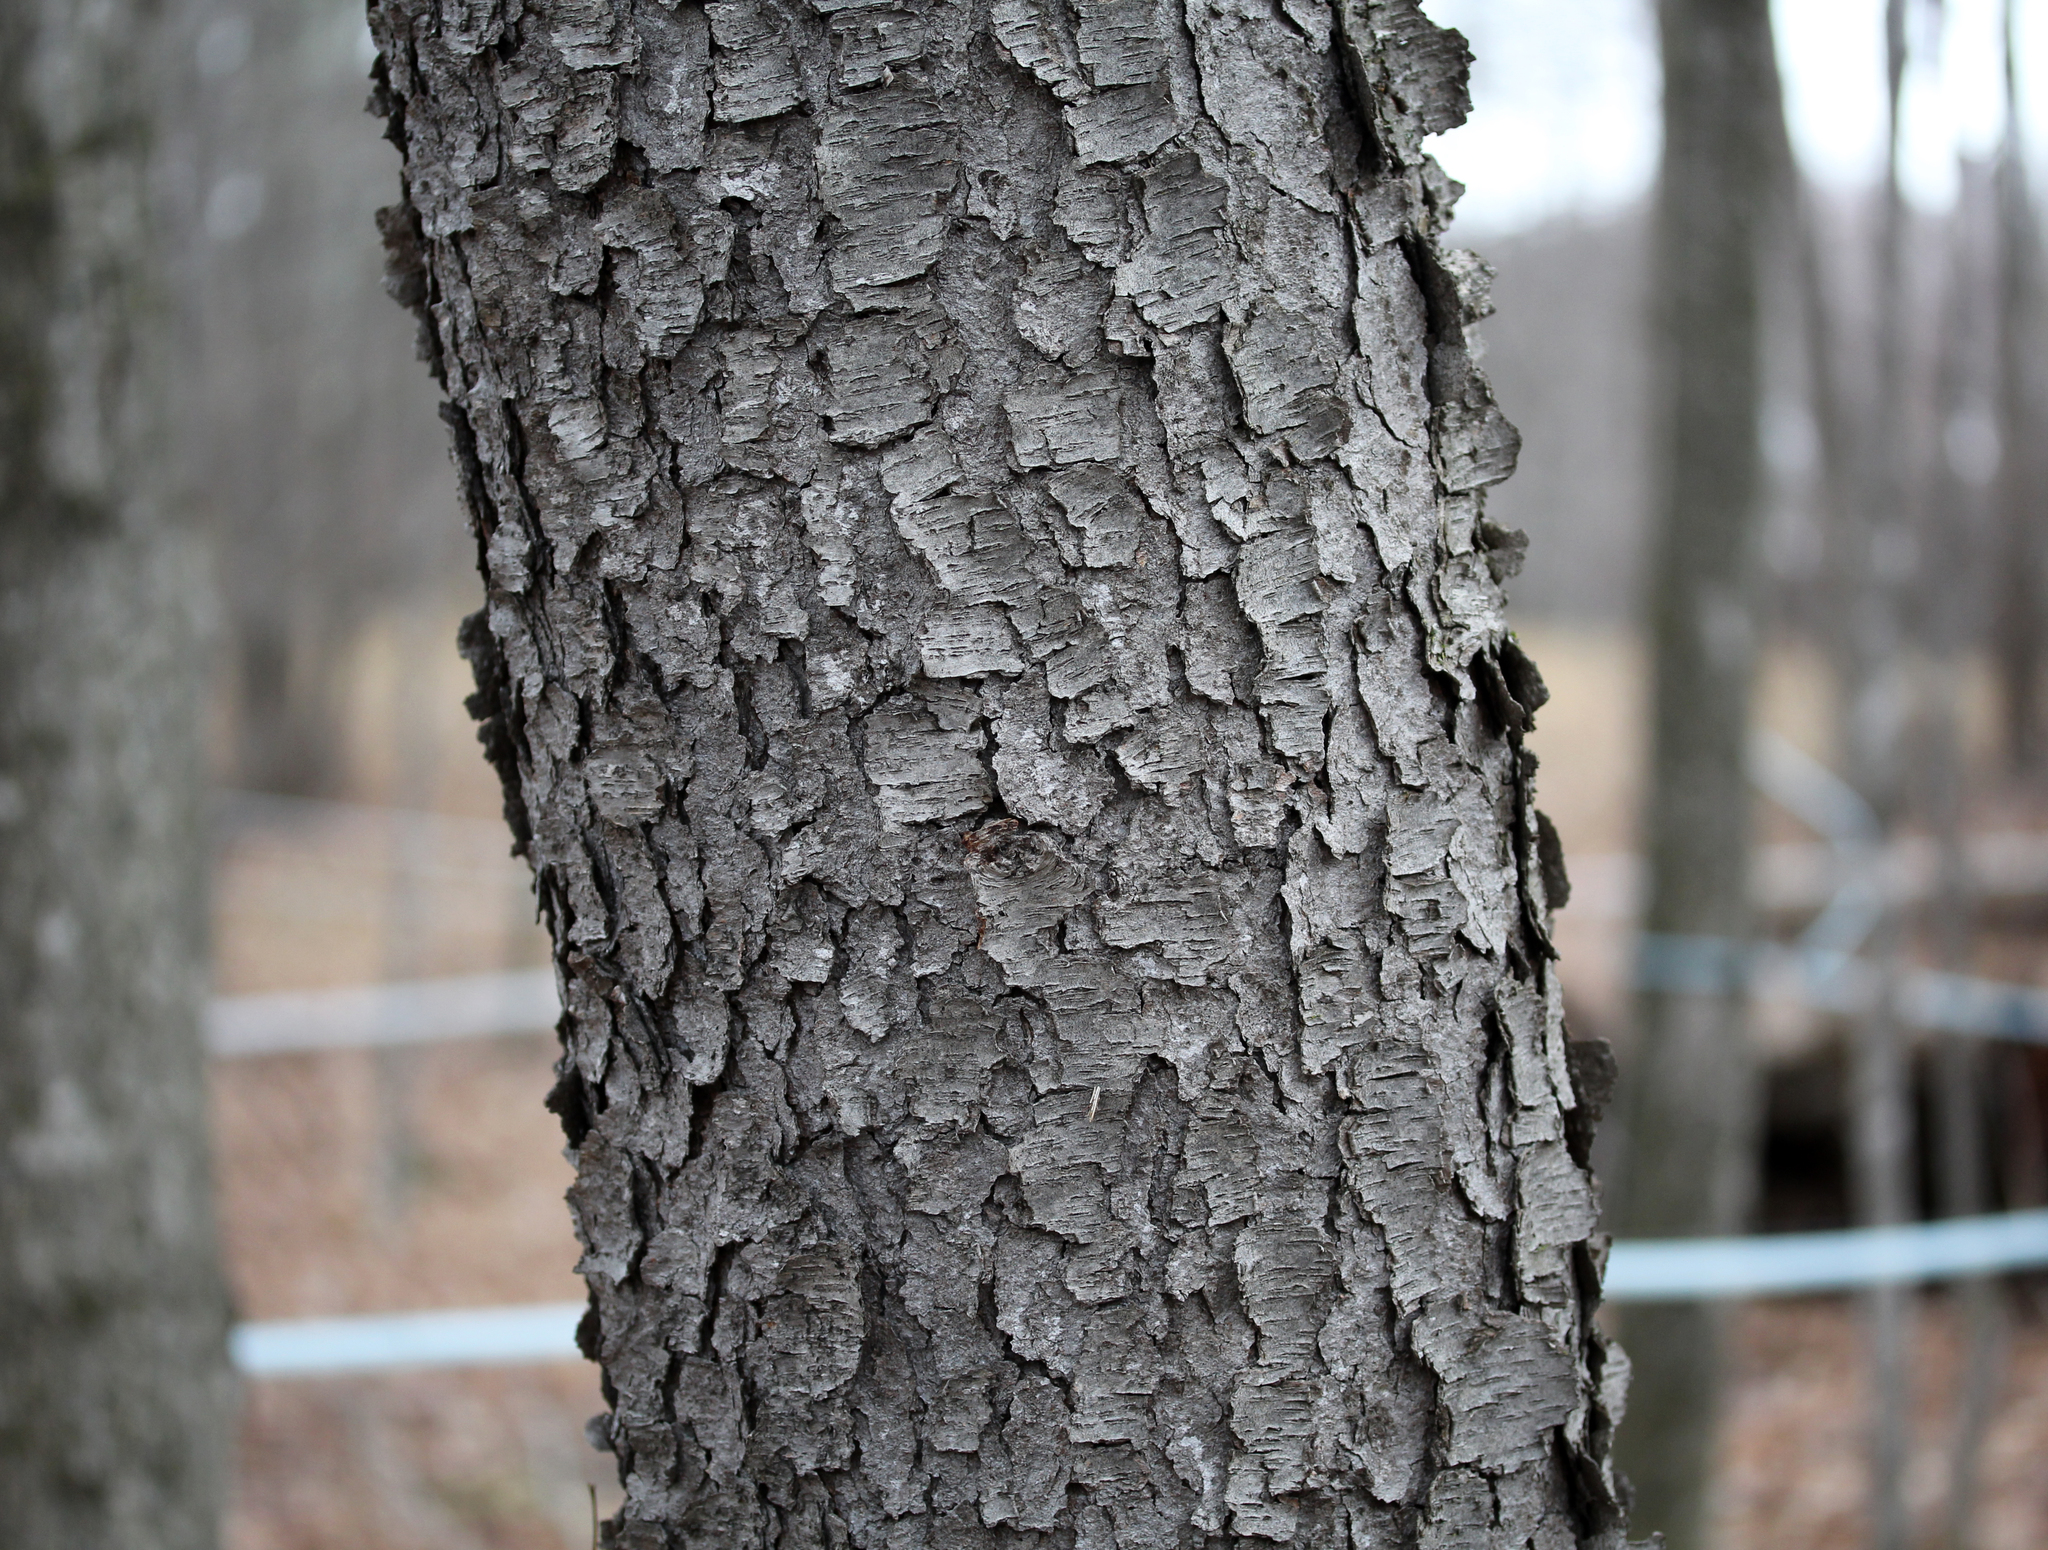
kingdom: Plantae
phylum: Tracheophyta
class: Magnoliopsida
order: Rosales
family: Rosaceae
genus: Prunus
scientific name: Prunus serotina
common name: Black cherry
